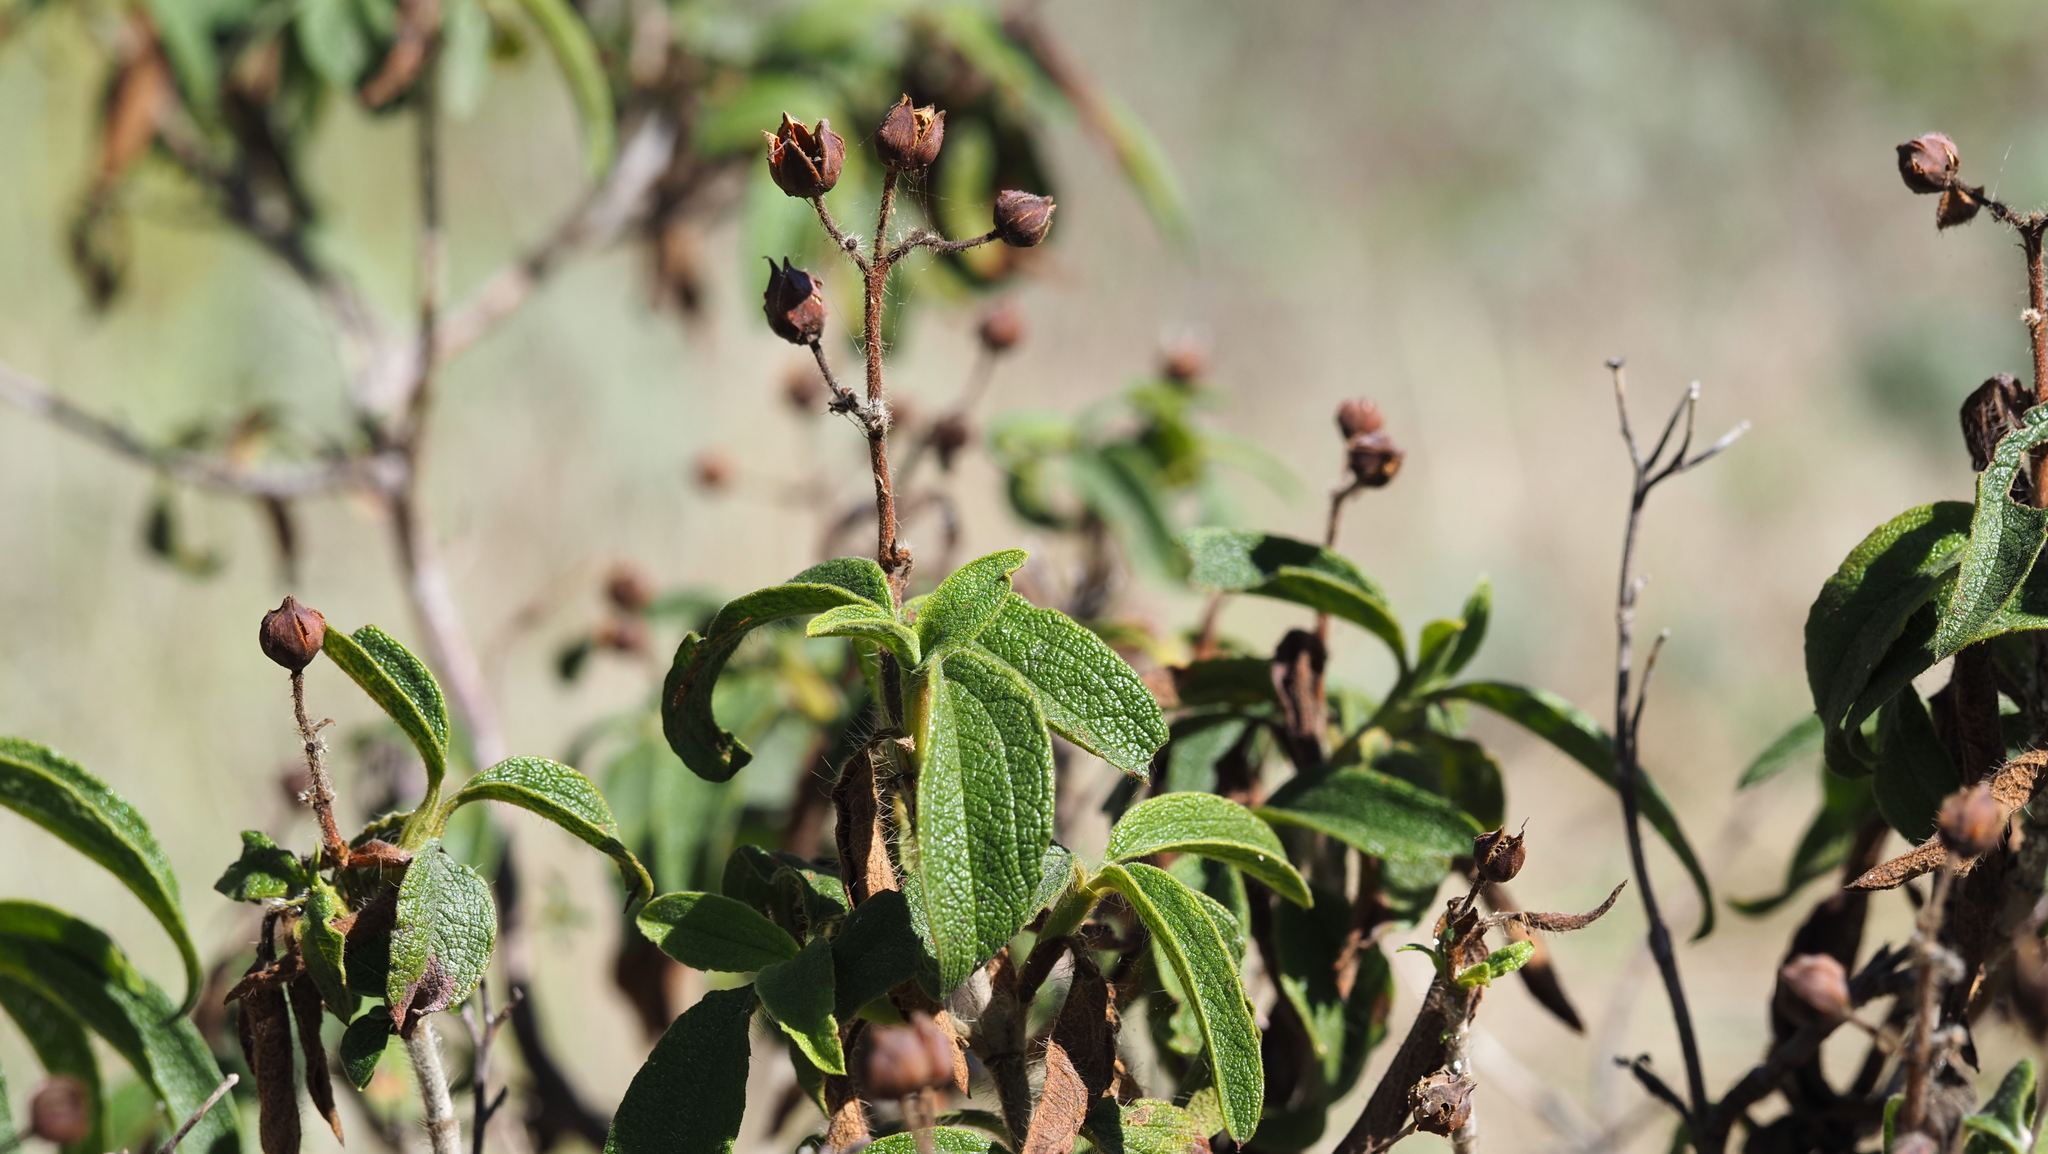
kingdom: Plantae
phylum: Tracheophyta
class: Magnoliopsida
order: Malvales
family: Cistaceae
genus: Cistus
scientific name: Cistus symphytifolius
